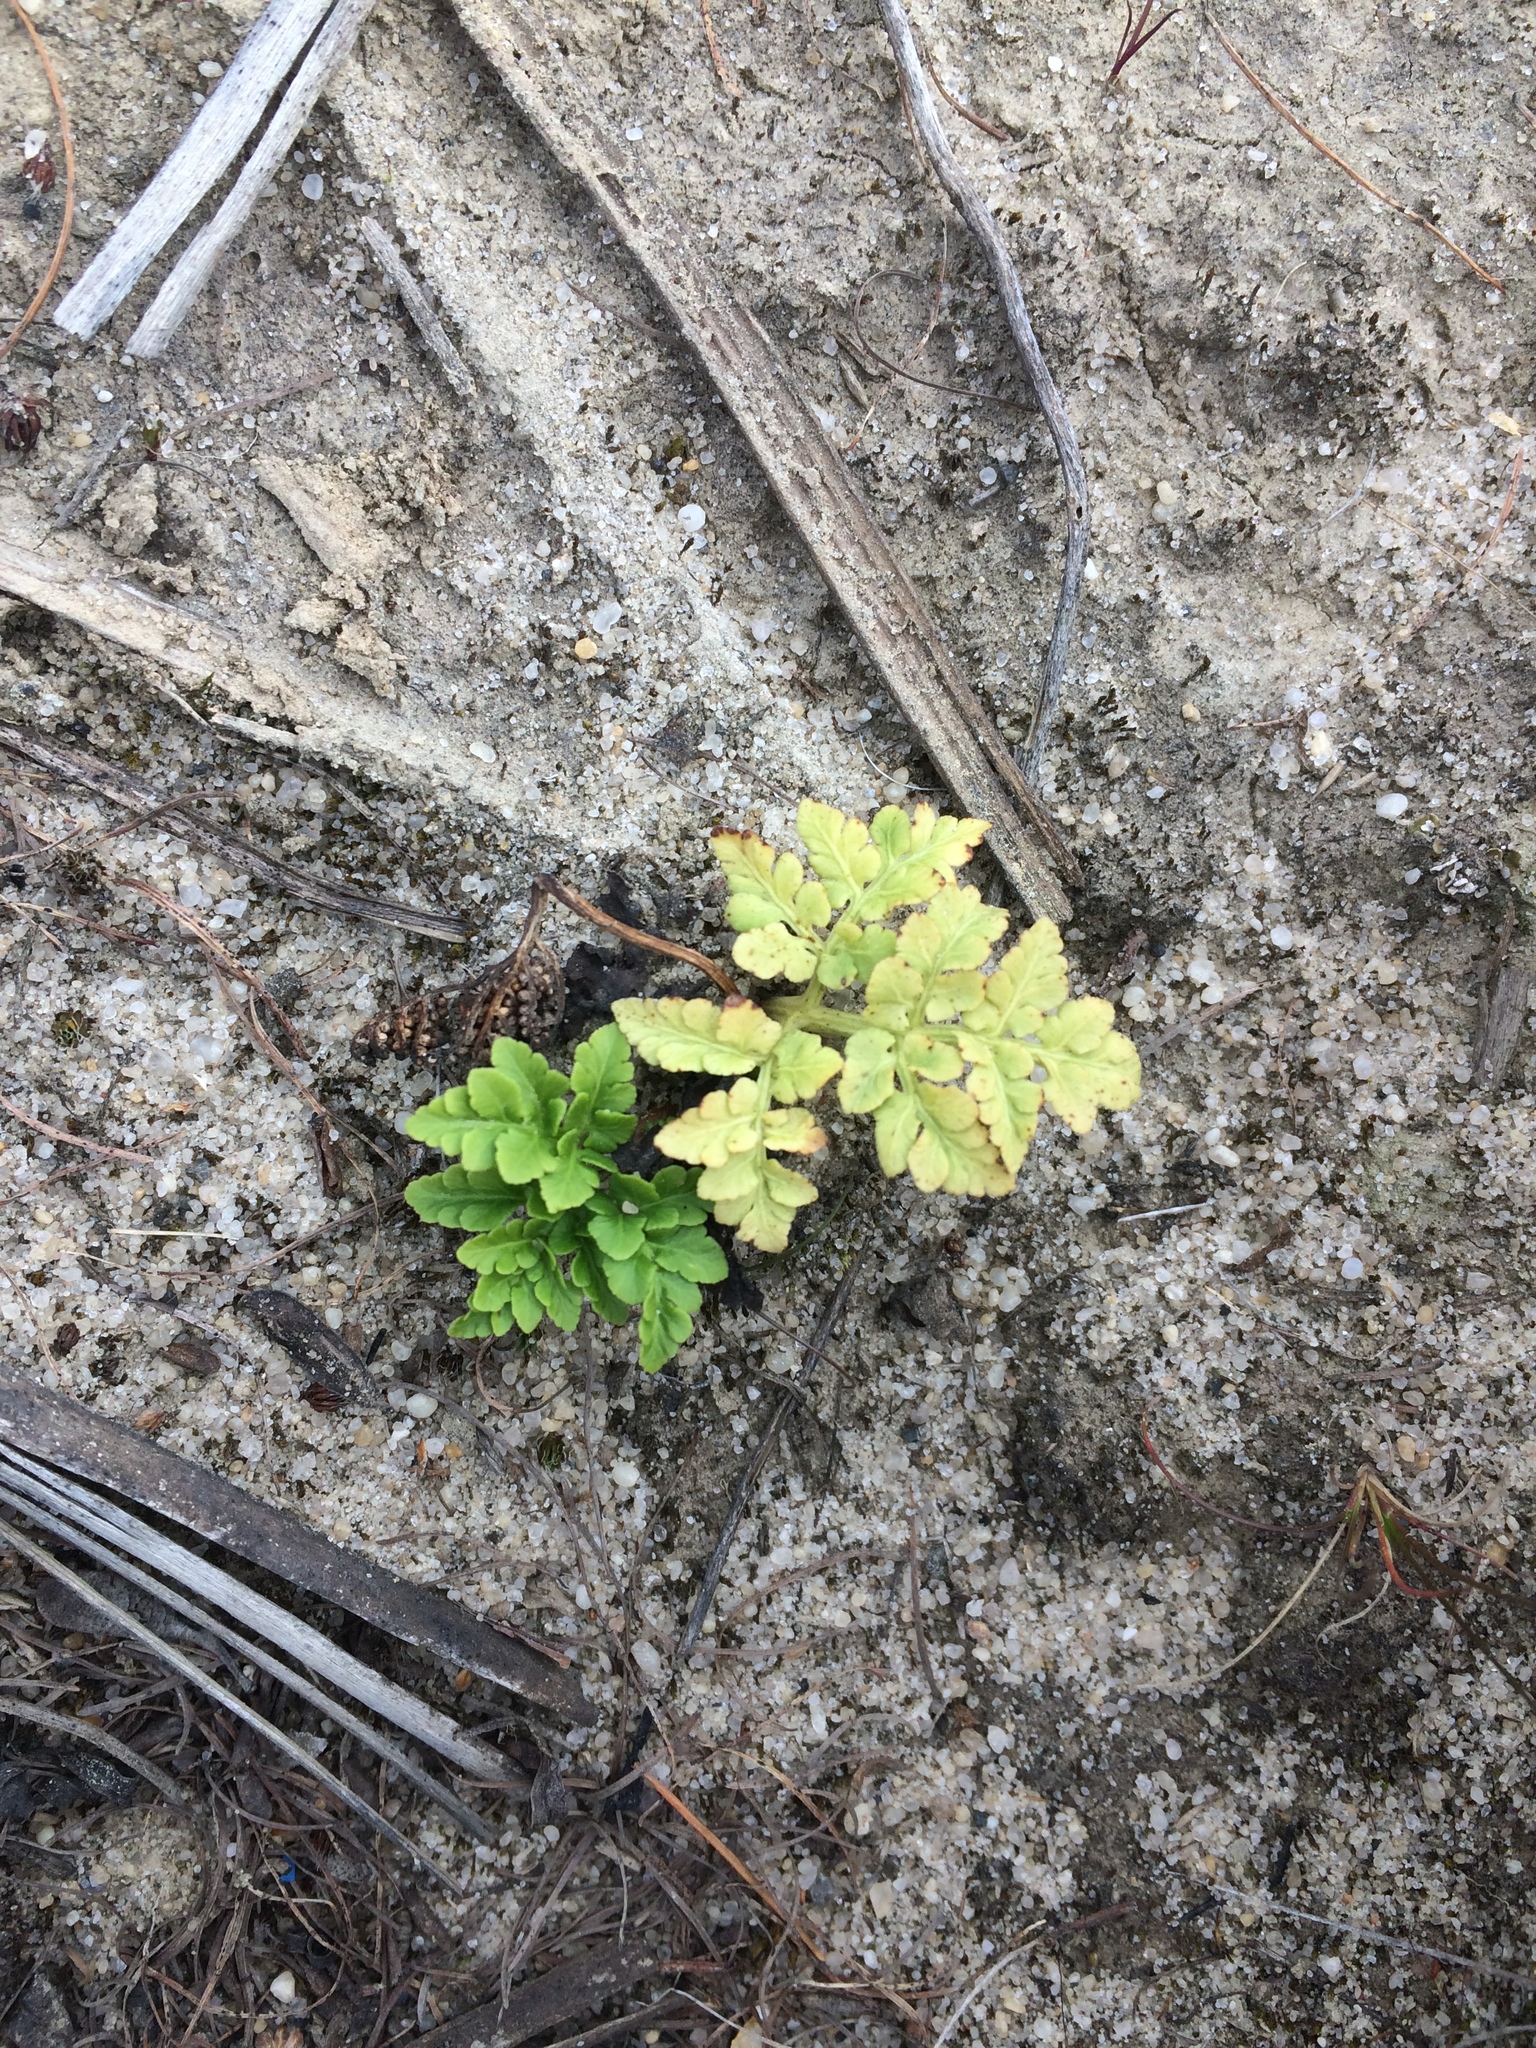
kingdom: Plantae
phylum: Tracheophyta
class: Polypodiopsida
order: Ophioglossales
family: Ophioglossaceae
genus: Sceptridium
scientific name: Sceptridium multifidum
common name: Leathery grape fern
